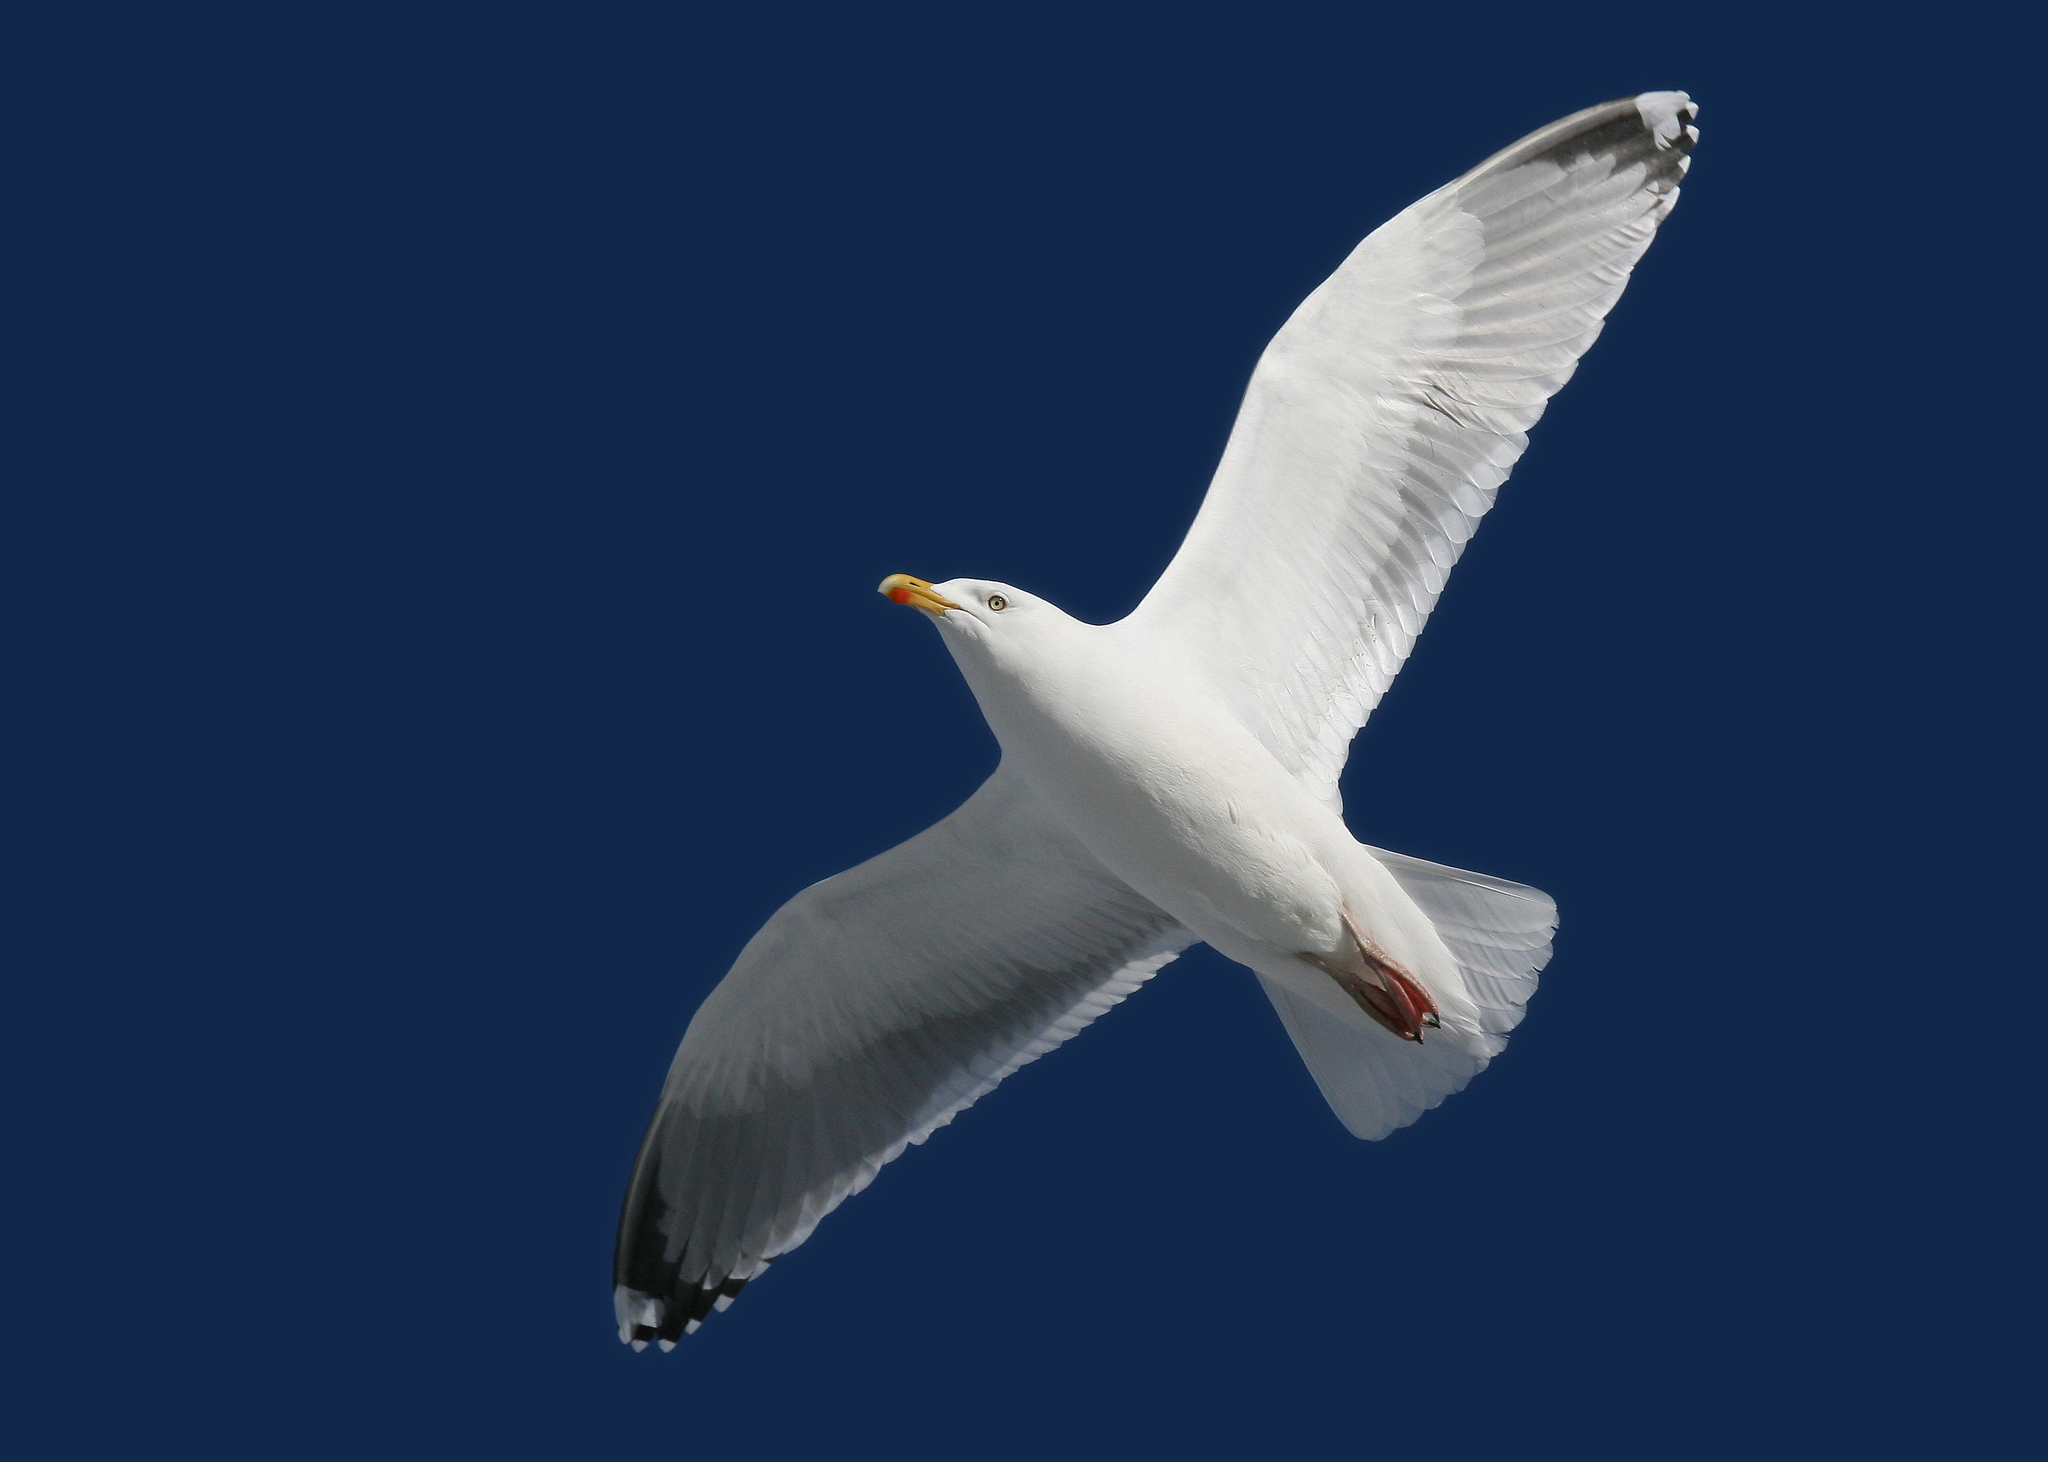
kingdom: Animalia
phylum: Chordata
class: Aves
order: Charadriiformes
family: Laridae
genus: Larus
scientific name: Larus argentatus
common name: Herring gull
